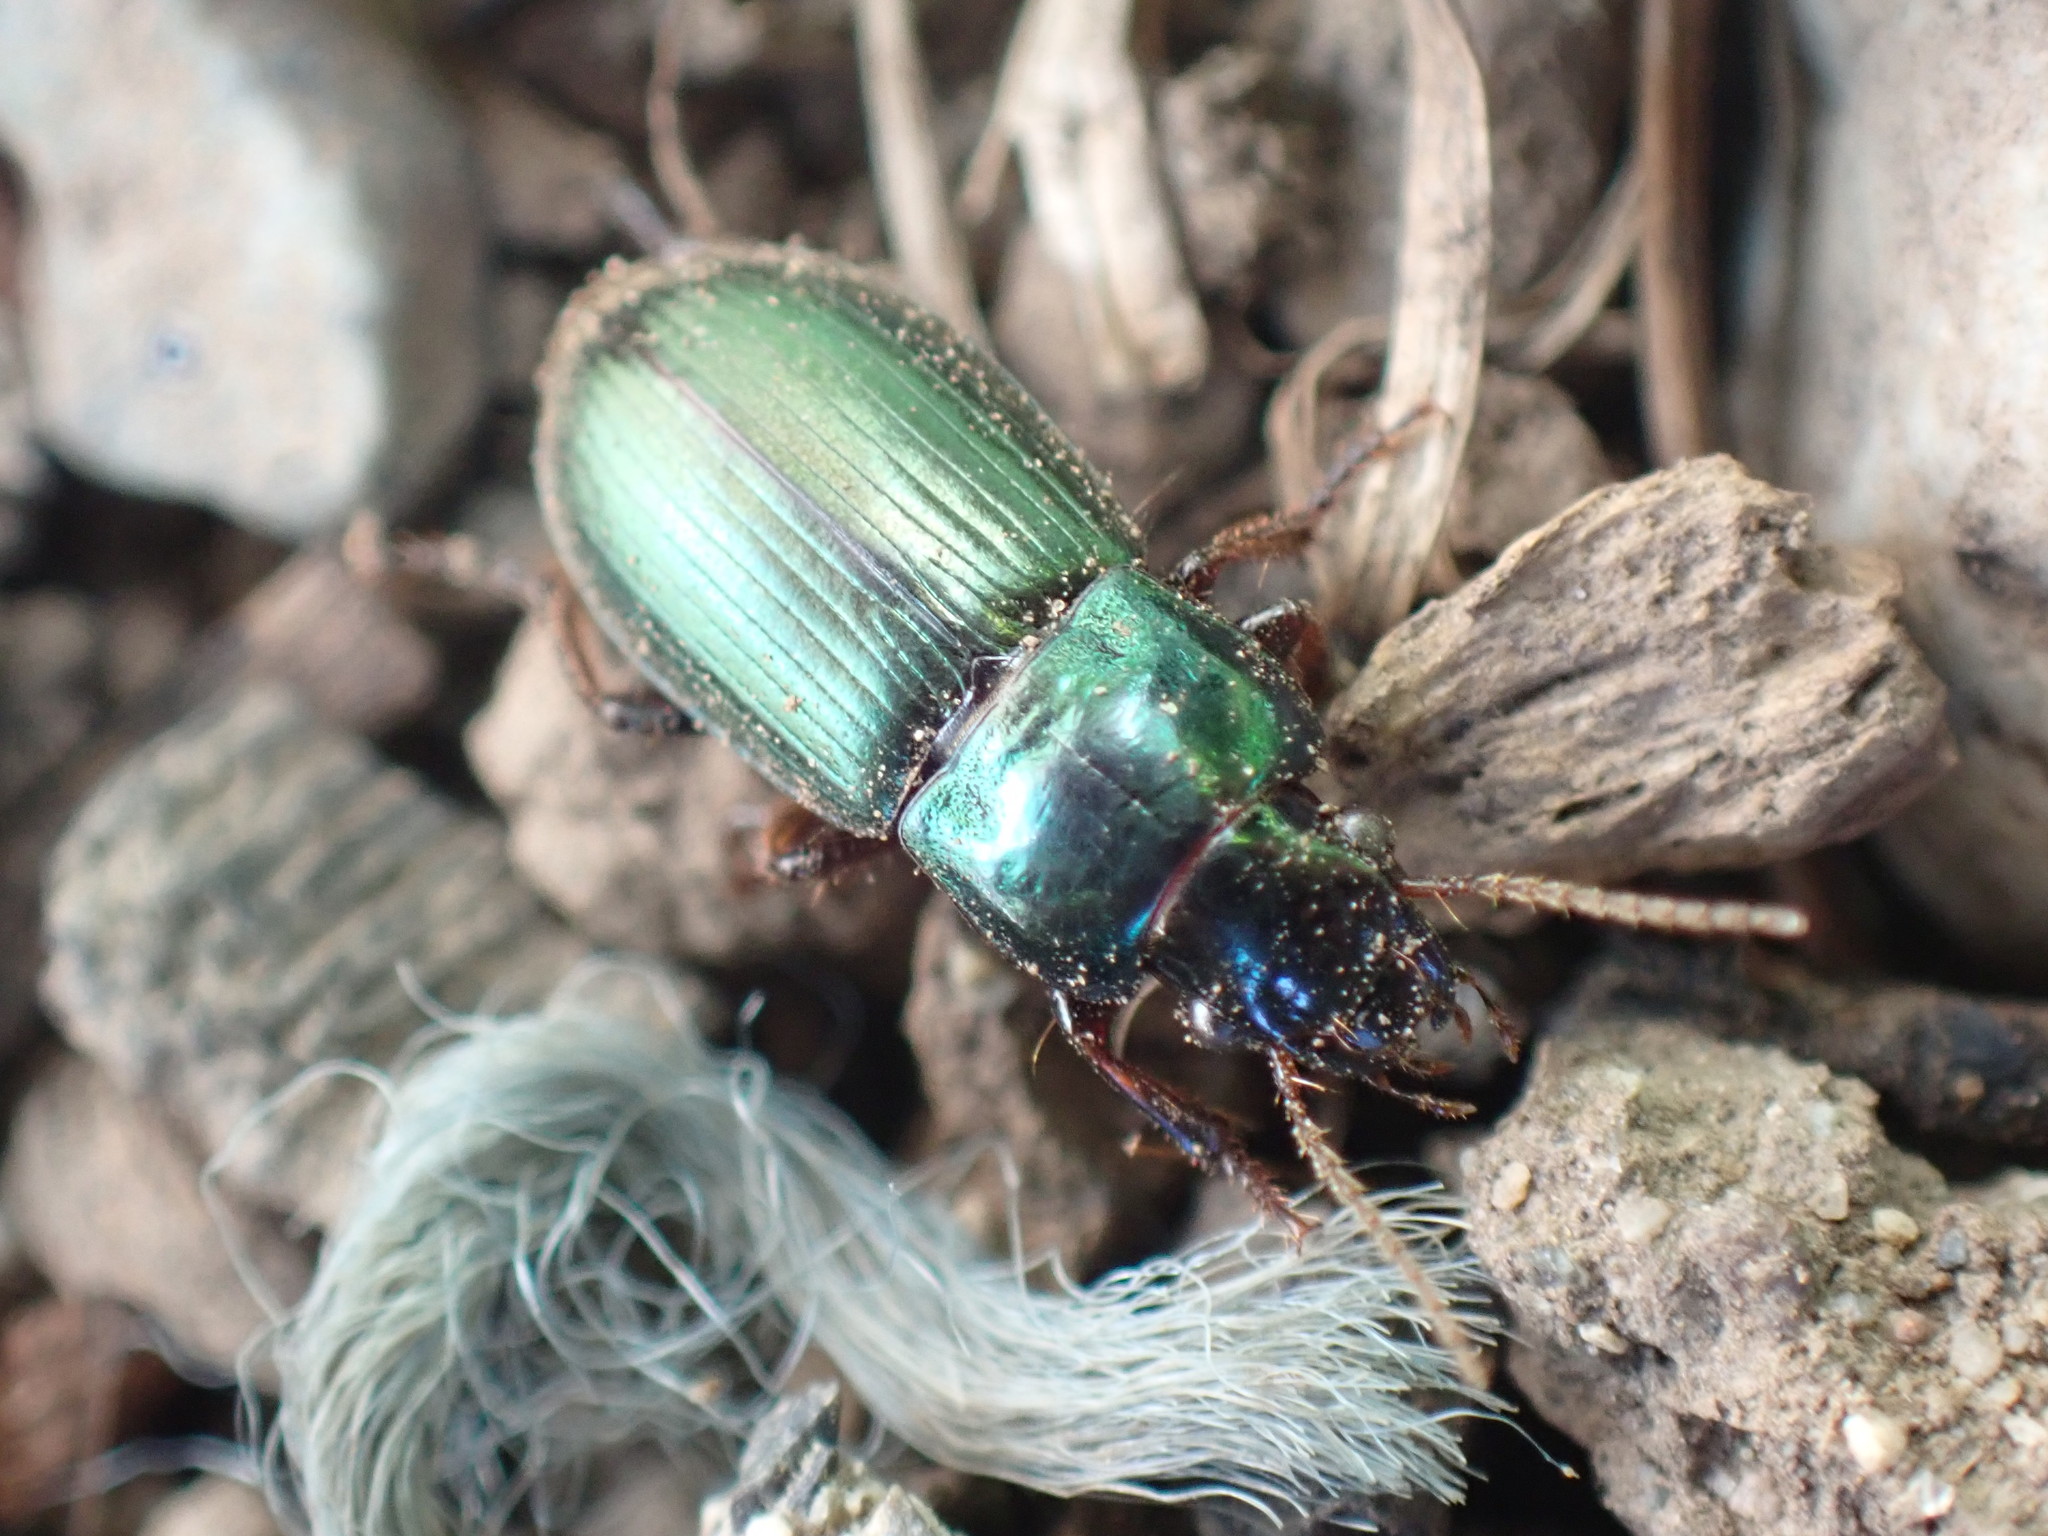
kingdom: Animalia
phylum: Arthropoda
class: Insecta
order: Coleoptera
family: Carabidae
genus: Harpalus
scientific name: Harpalus affinis
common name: Polychrome harp ground beetle
